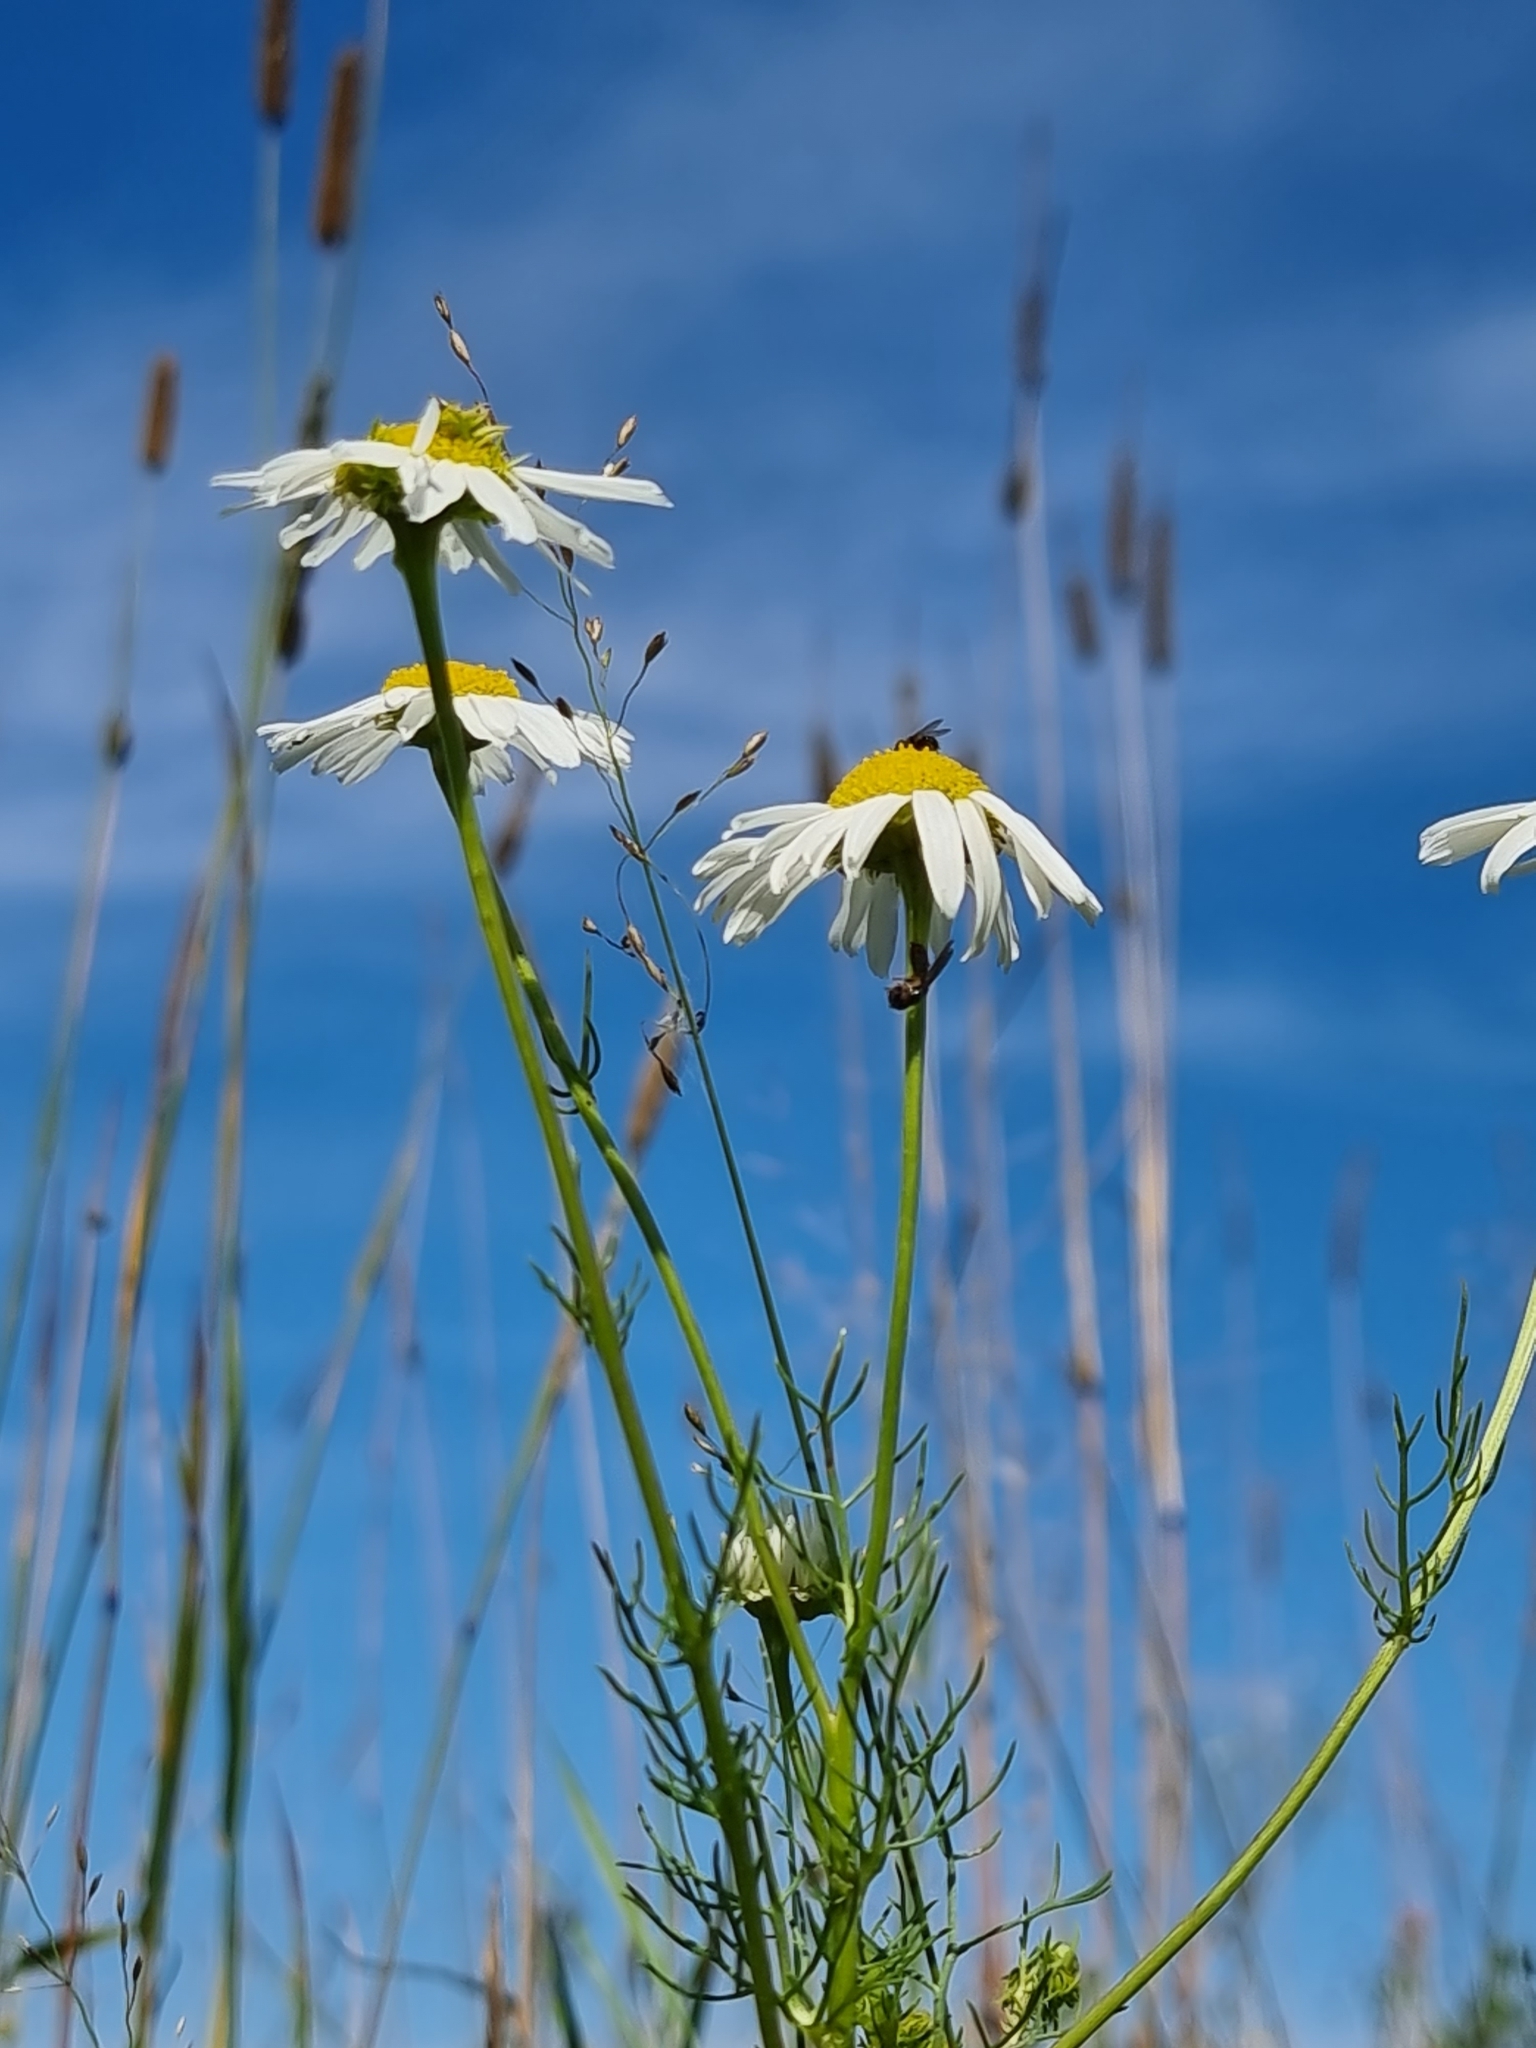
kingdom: Plantae
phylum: Tracheophyta
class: Magnoliopsida
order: Asterales
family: Asteraceae
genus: Tripleurospermum
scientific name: Tripleurospermum inodorum
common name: Scentless mayweed
